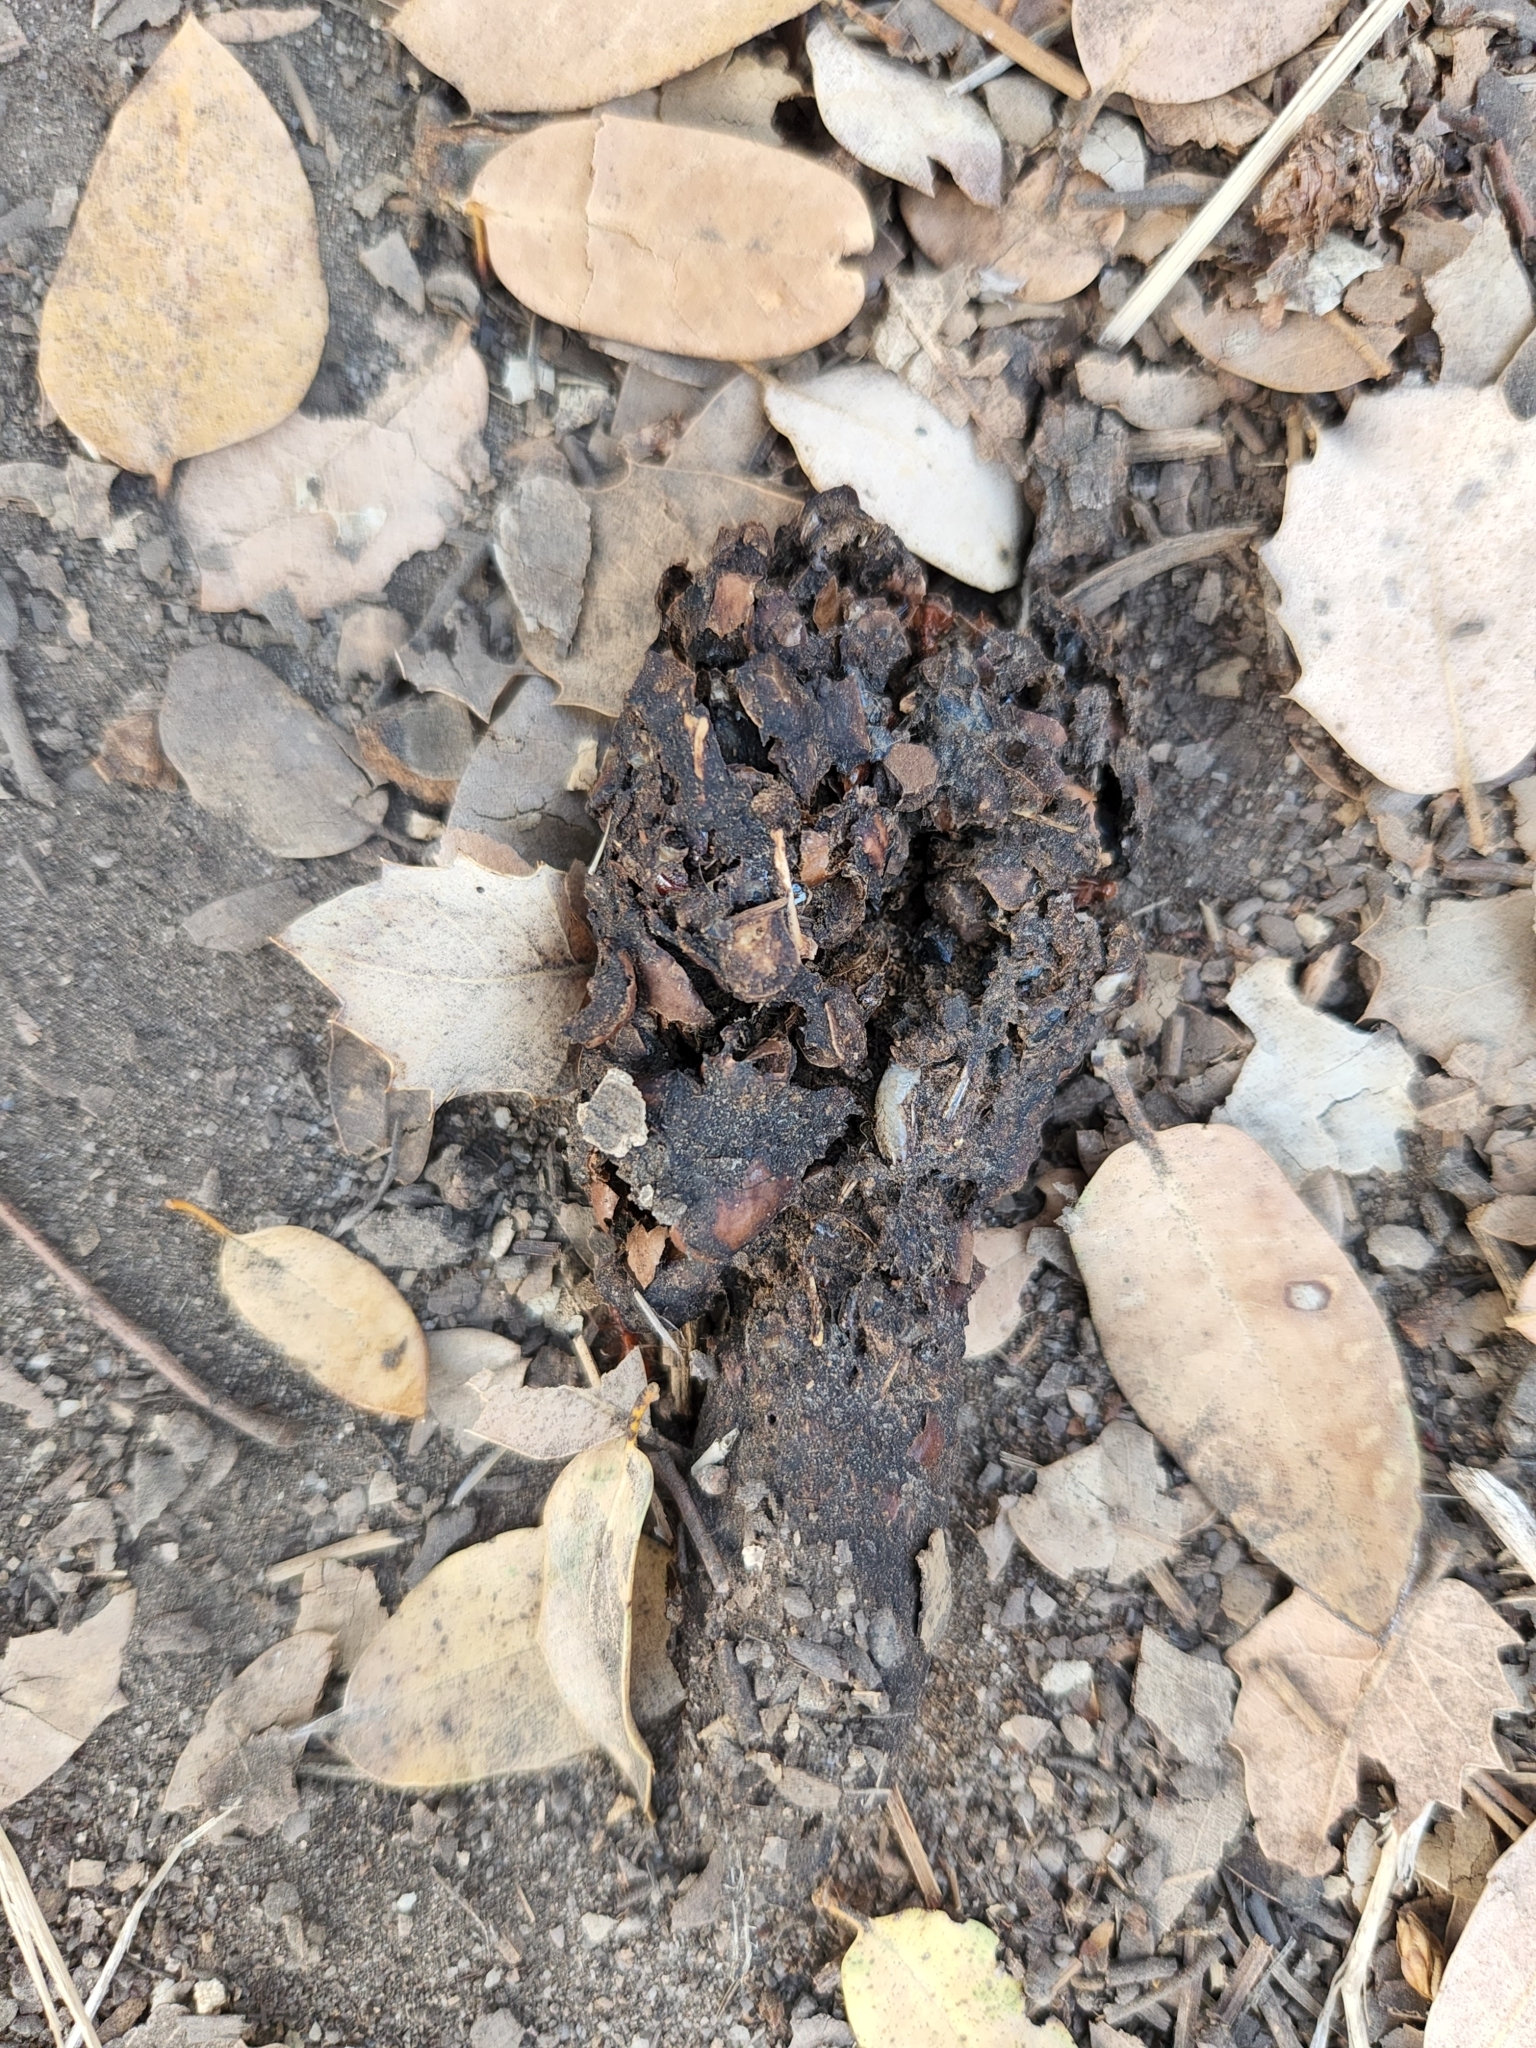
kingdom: Animalia
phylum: Chordata
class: Mammalia
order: Carnivora
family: Ursidae
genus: Ursus
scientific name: Ursus americanus
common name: American black bear
